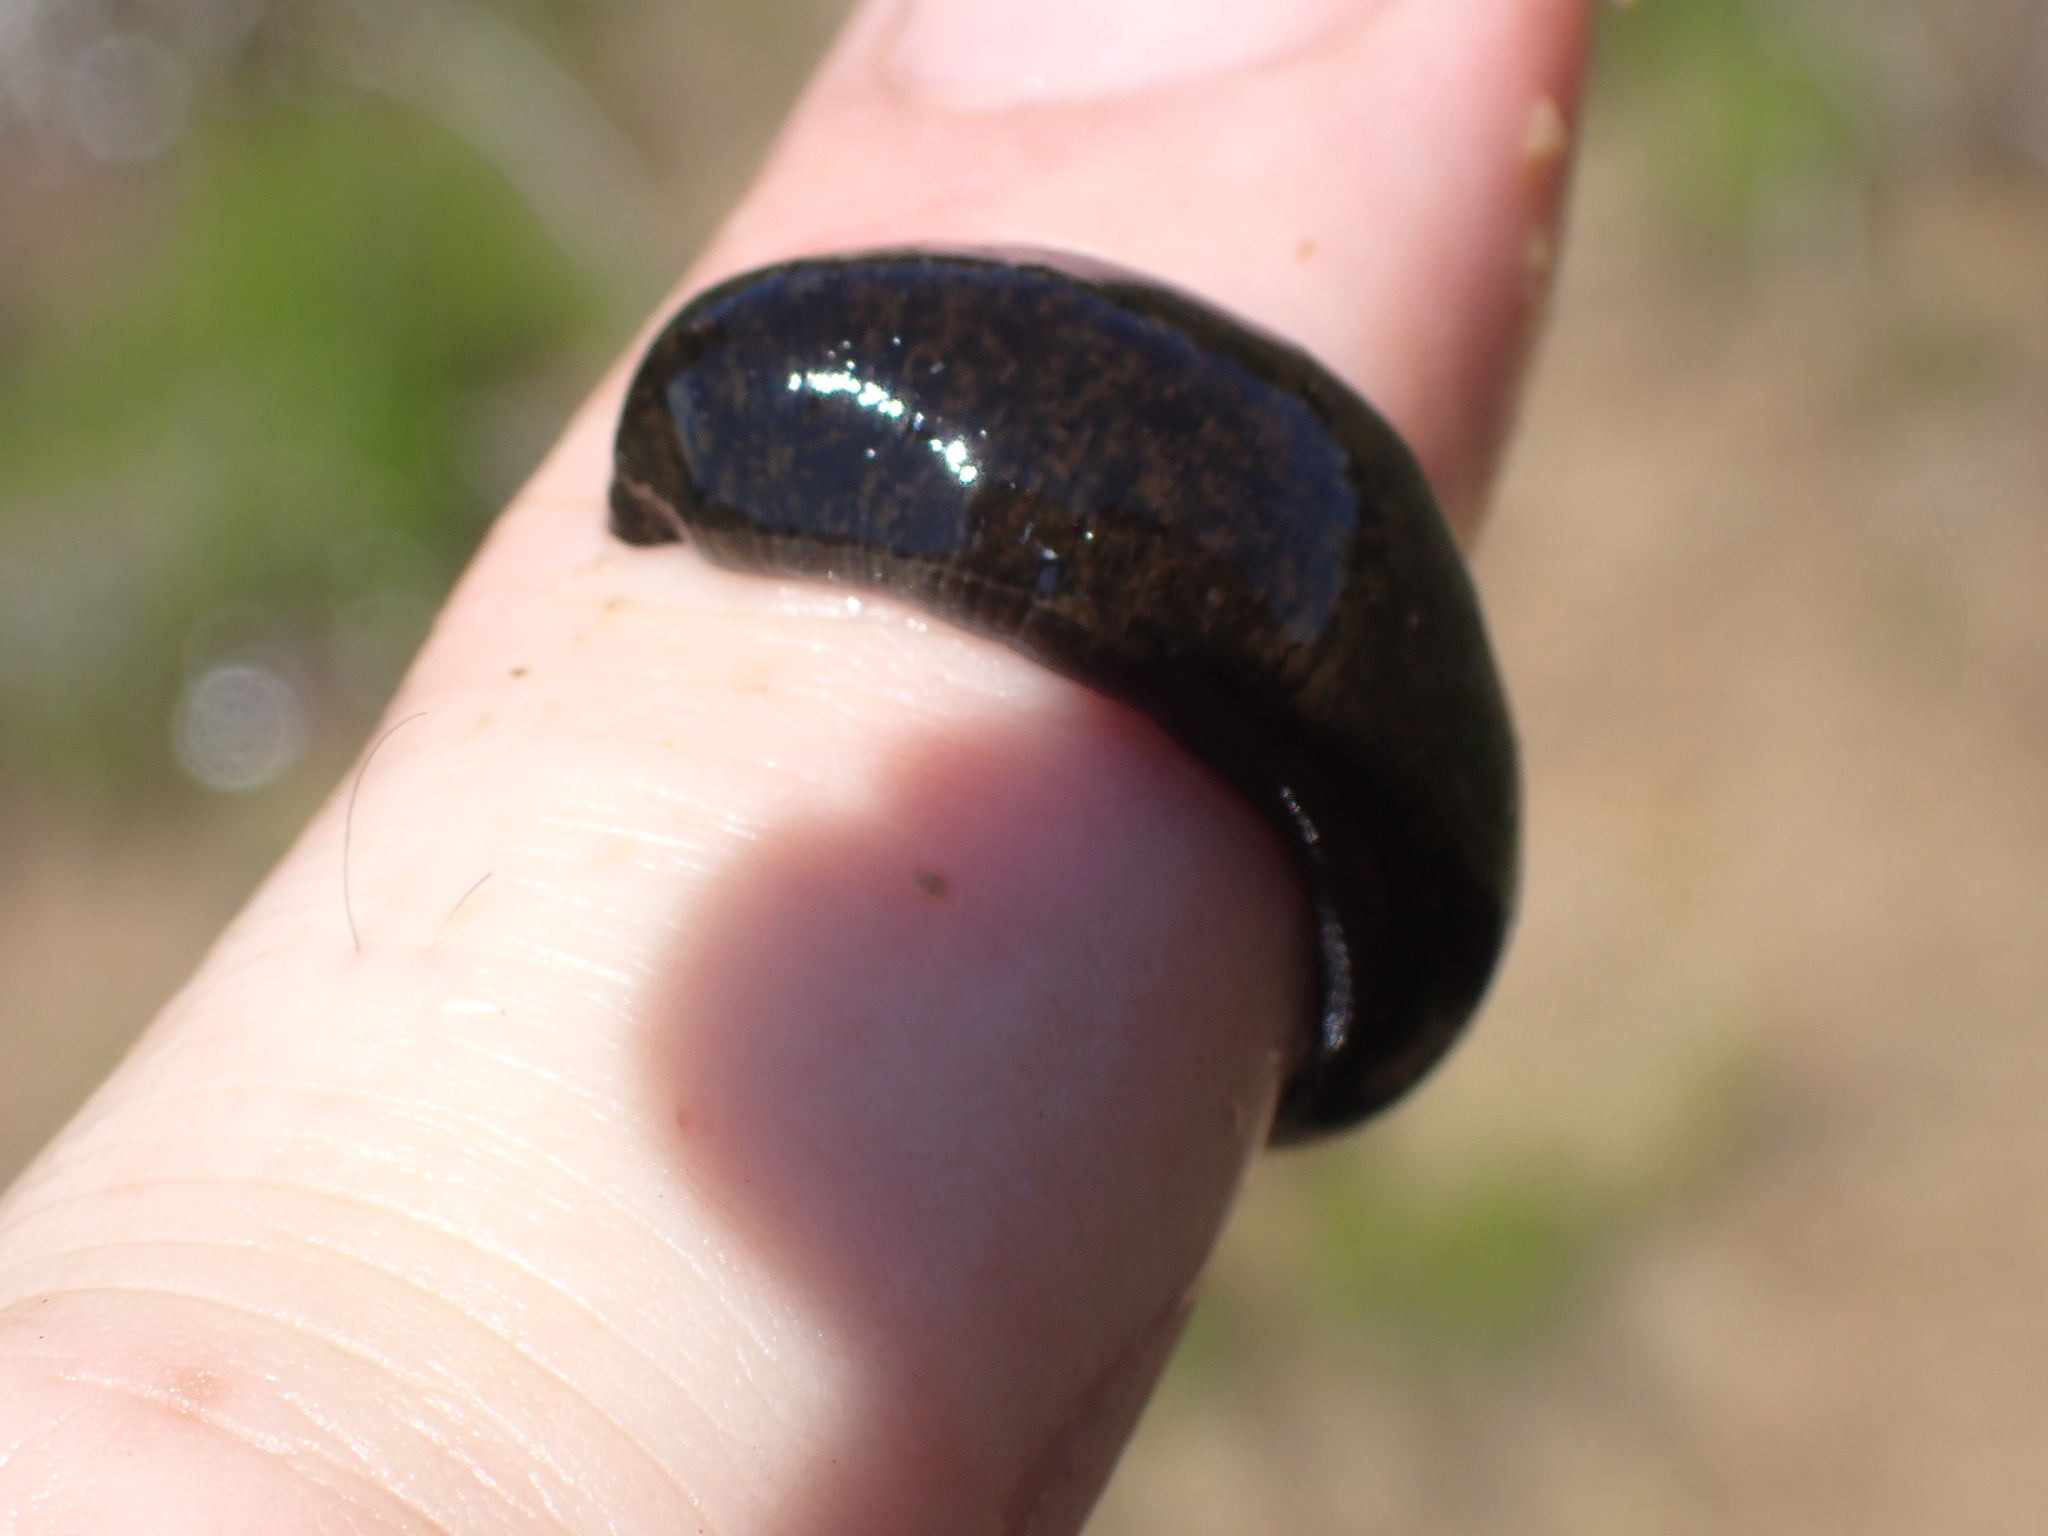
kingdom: Animalia
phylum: Annelida
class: Clitellata
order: Arhynchobdellida
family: Haemopidae
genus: Haemopis
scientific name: Haemopis marmorata
